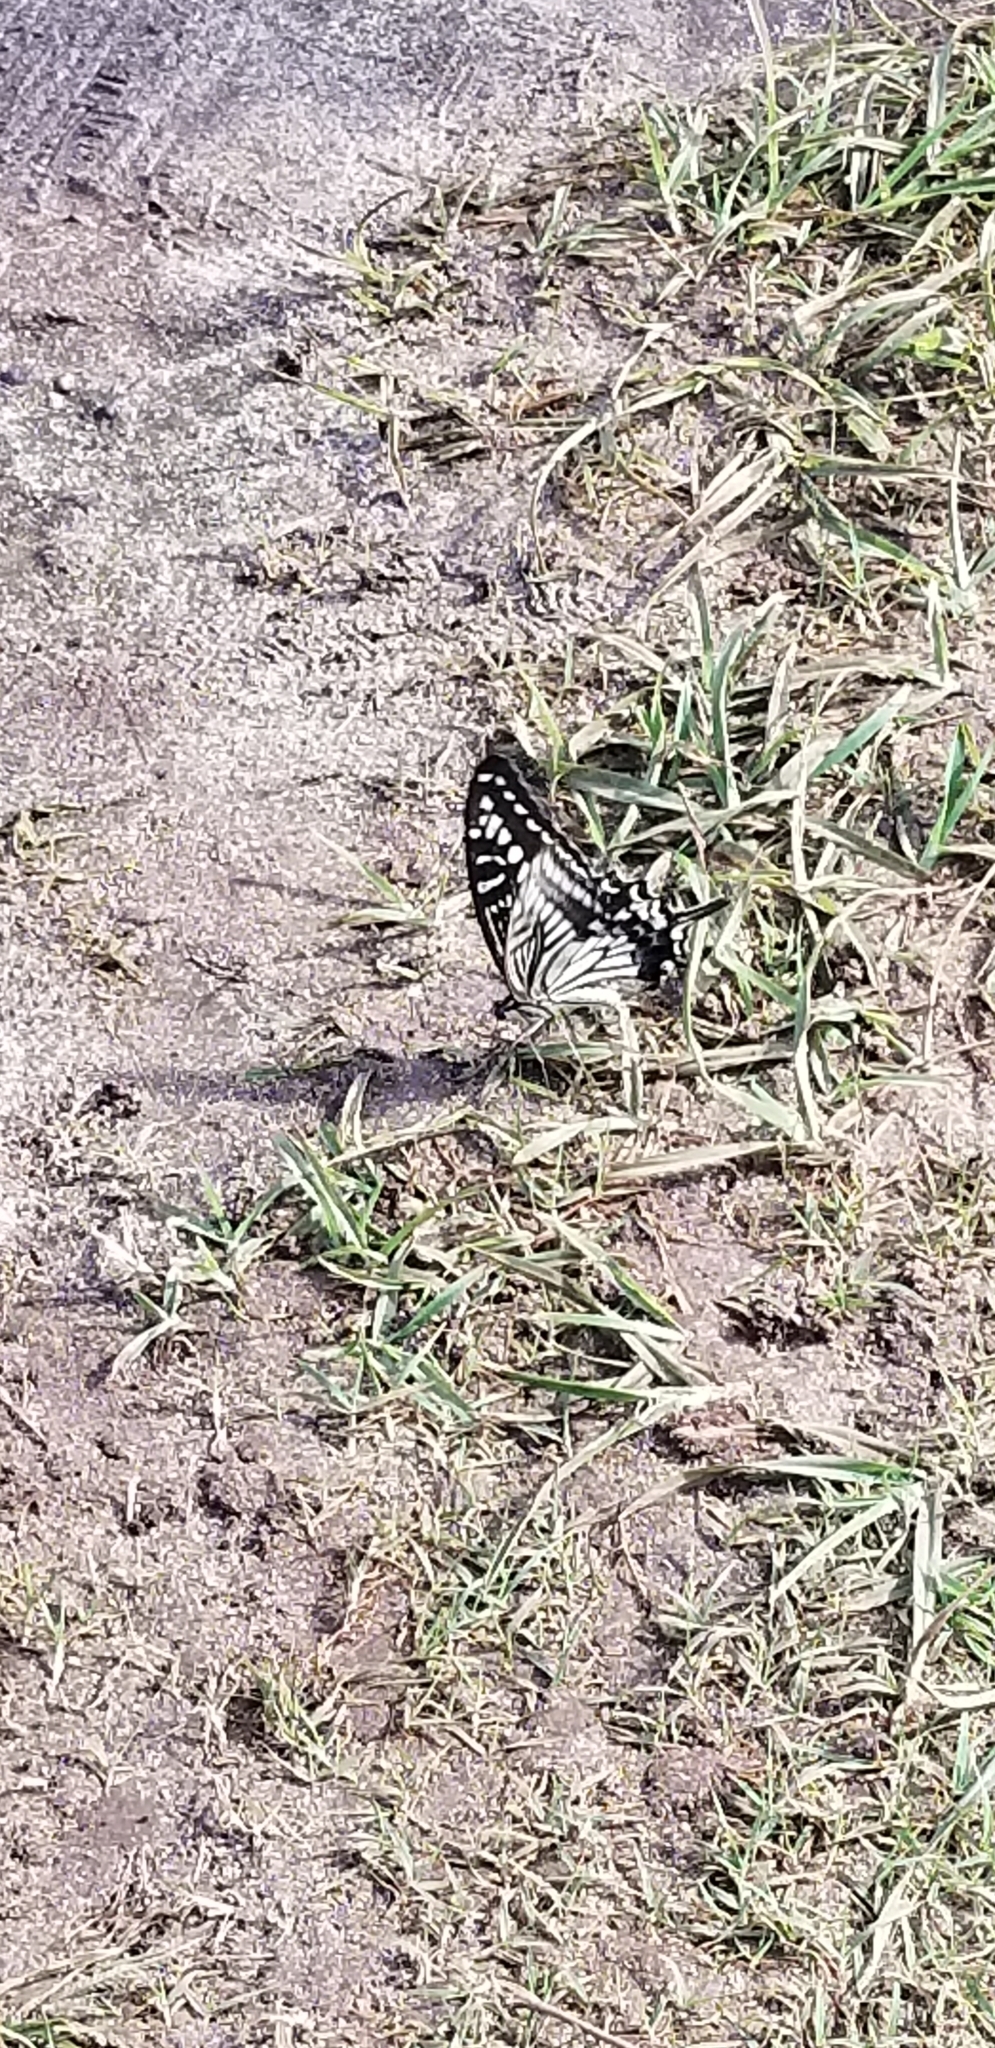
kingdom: Animalia
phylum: Arthropoda
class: Insecta
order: Lepidoptera
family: Papilionidae
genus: Papilio
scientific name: Papilio xuthus
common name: Asian swallowtail
